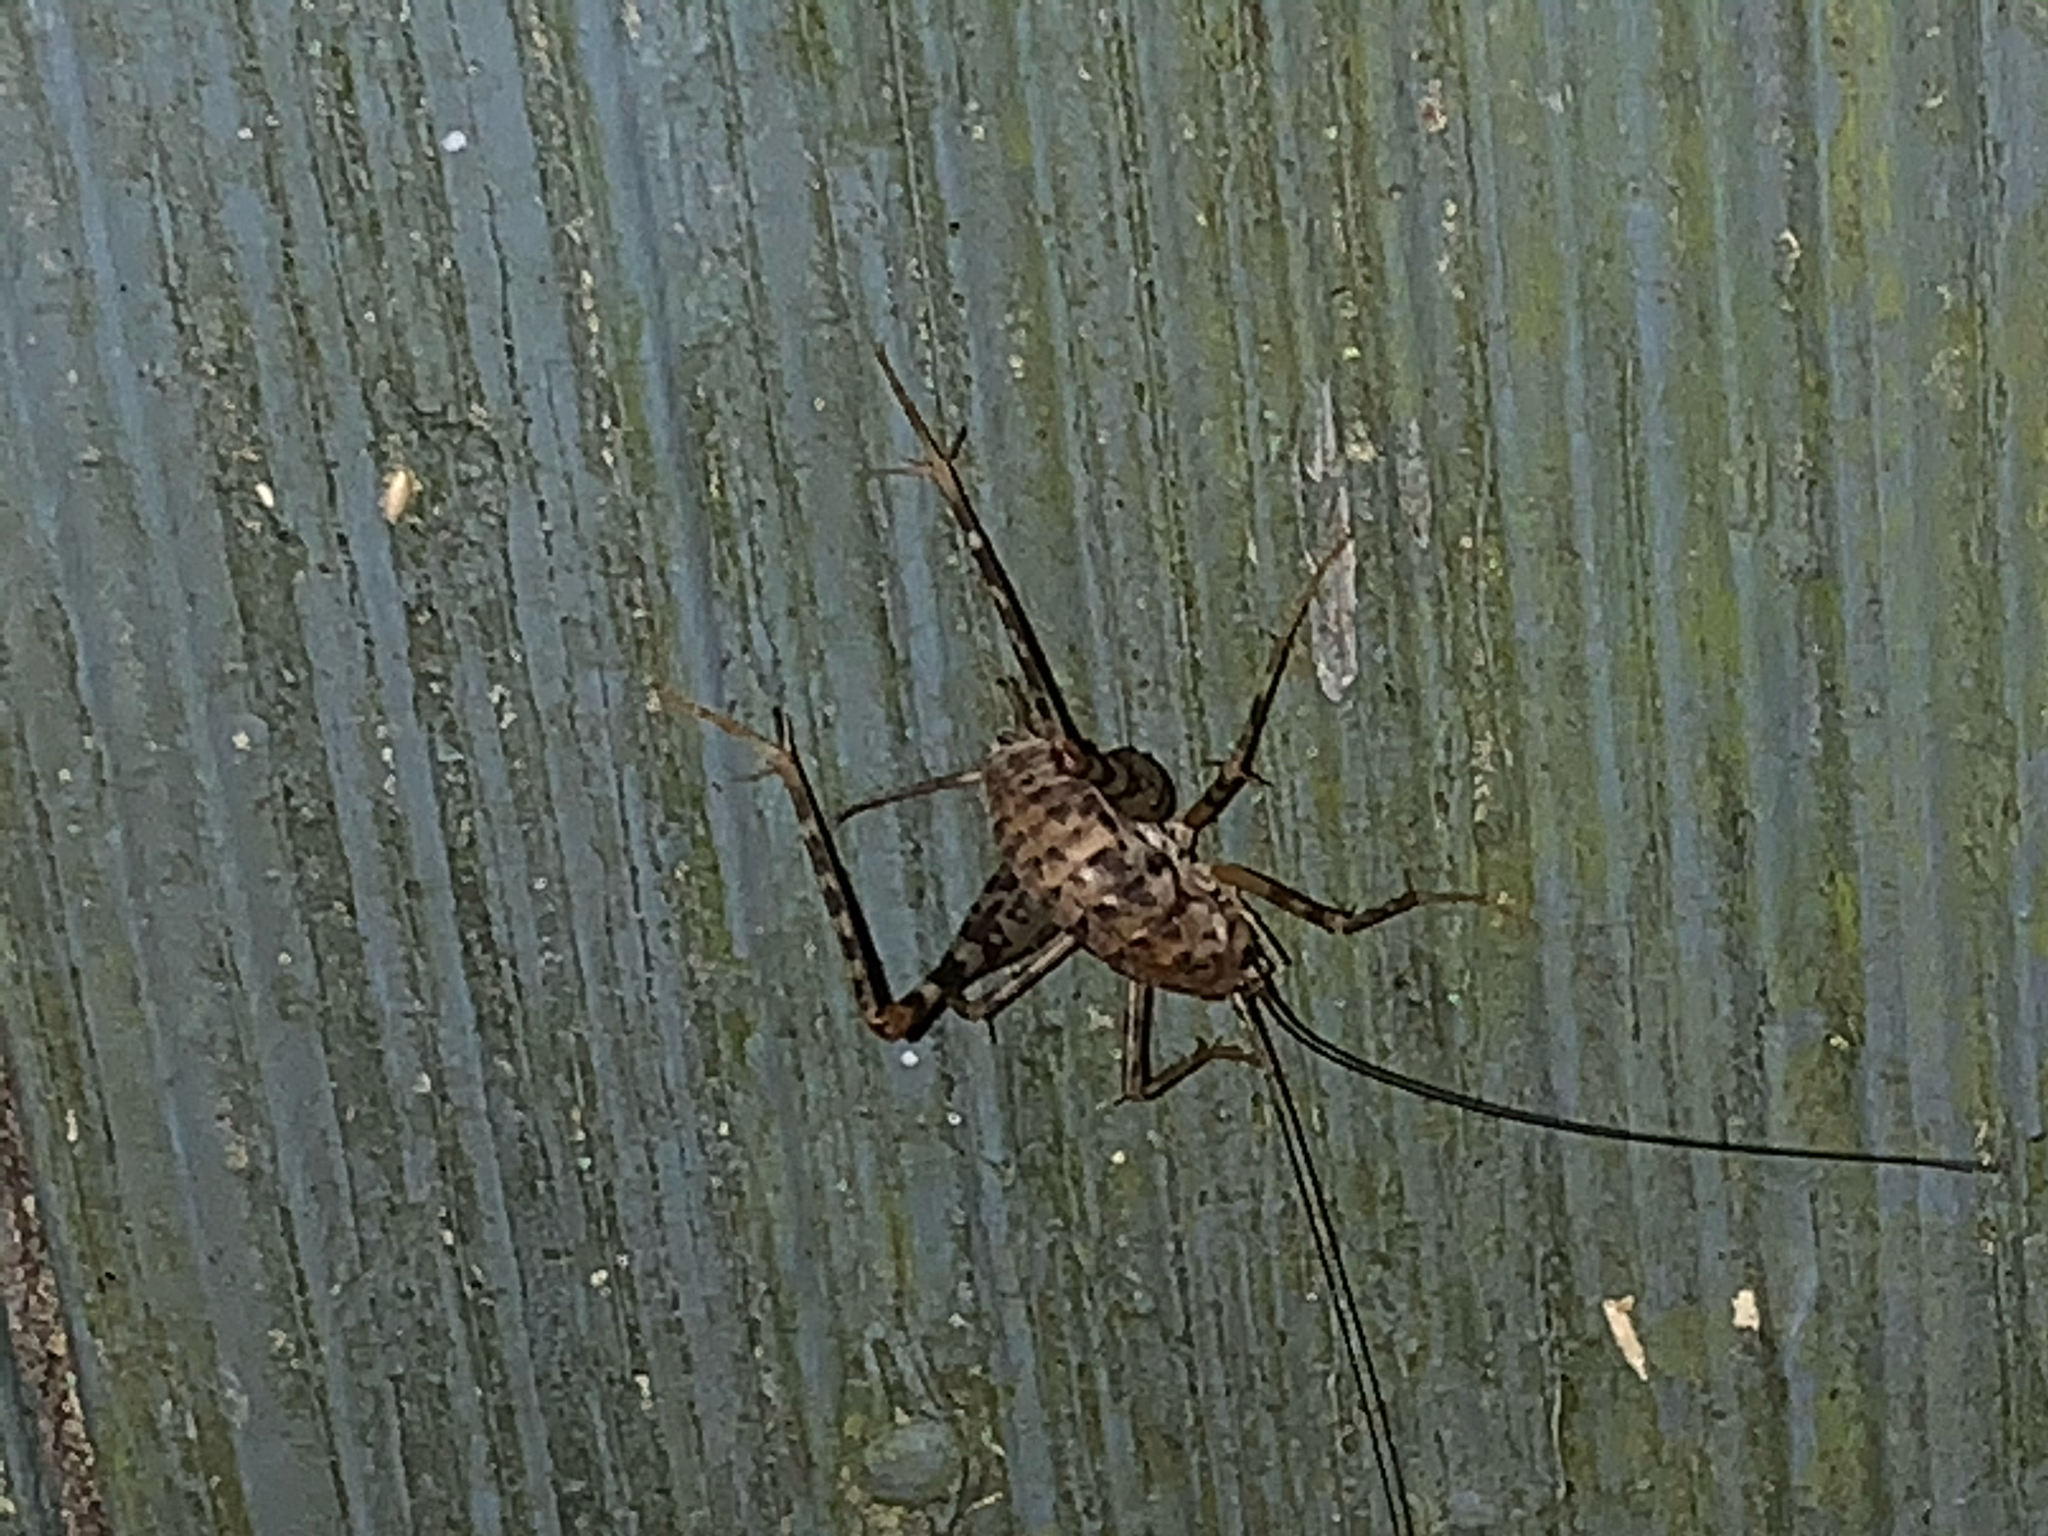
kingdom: Animalia
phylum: Arthropoda
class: Insecta
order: Orthoptera
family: Rhaphidophoridae
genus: Tachycines
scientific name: Tachycines asynamorus
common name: Greenhouse camel cricket
